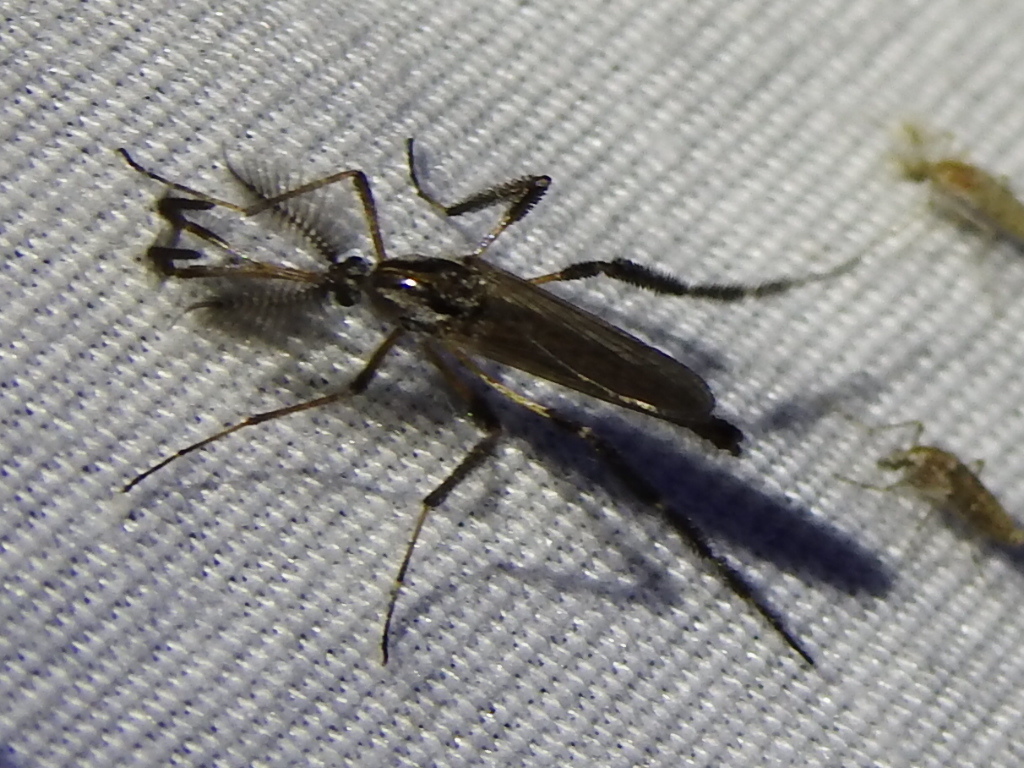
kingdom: Animalia
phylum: Arthropoda
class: Insecta
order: Diptera
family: Culicidae
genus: Psorophora
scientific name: Psorophora ciliata
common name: Gallinipper
